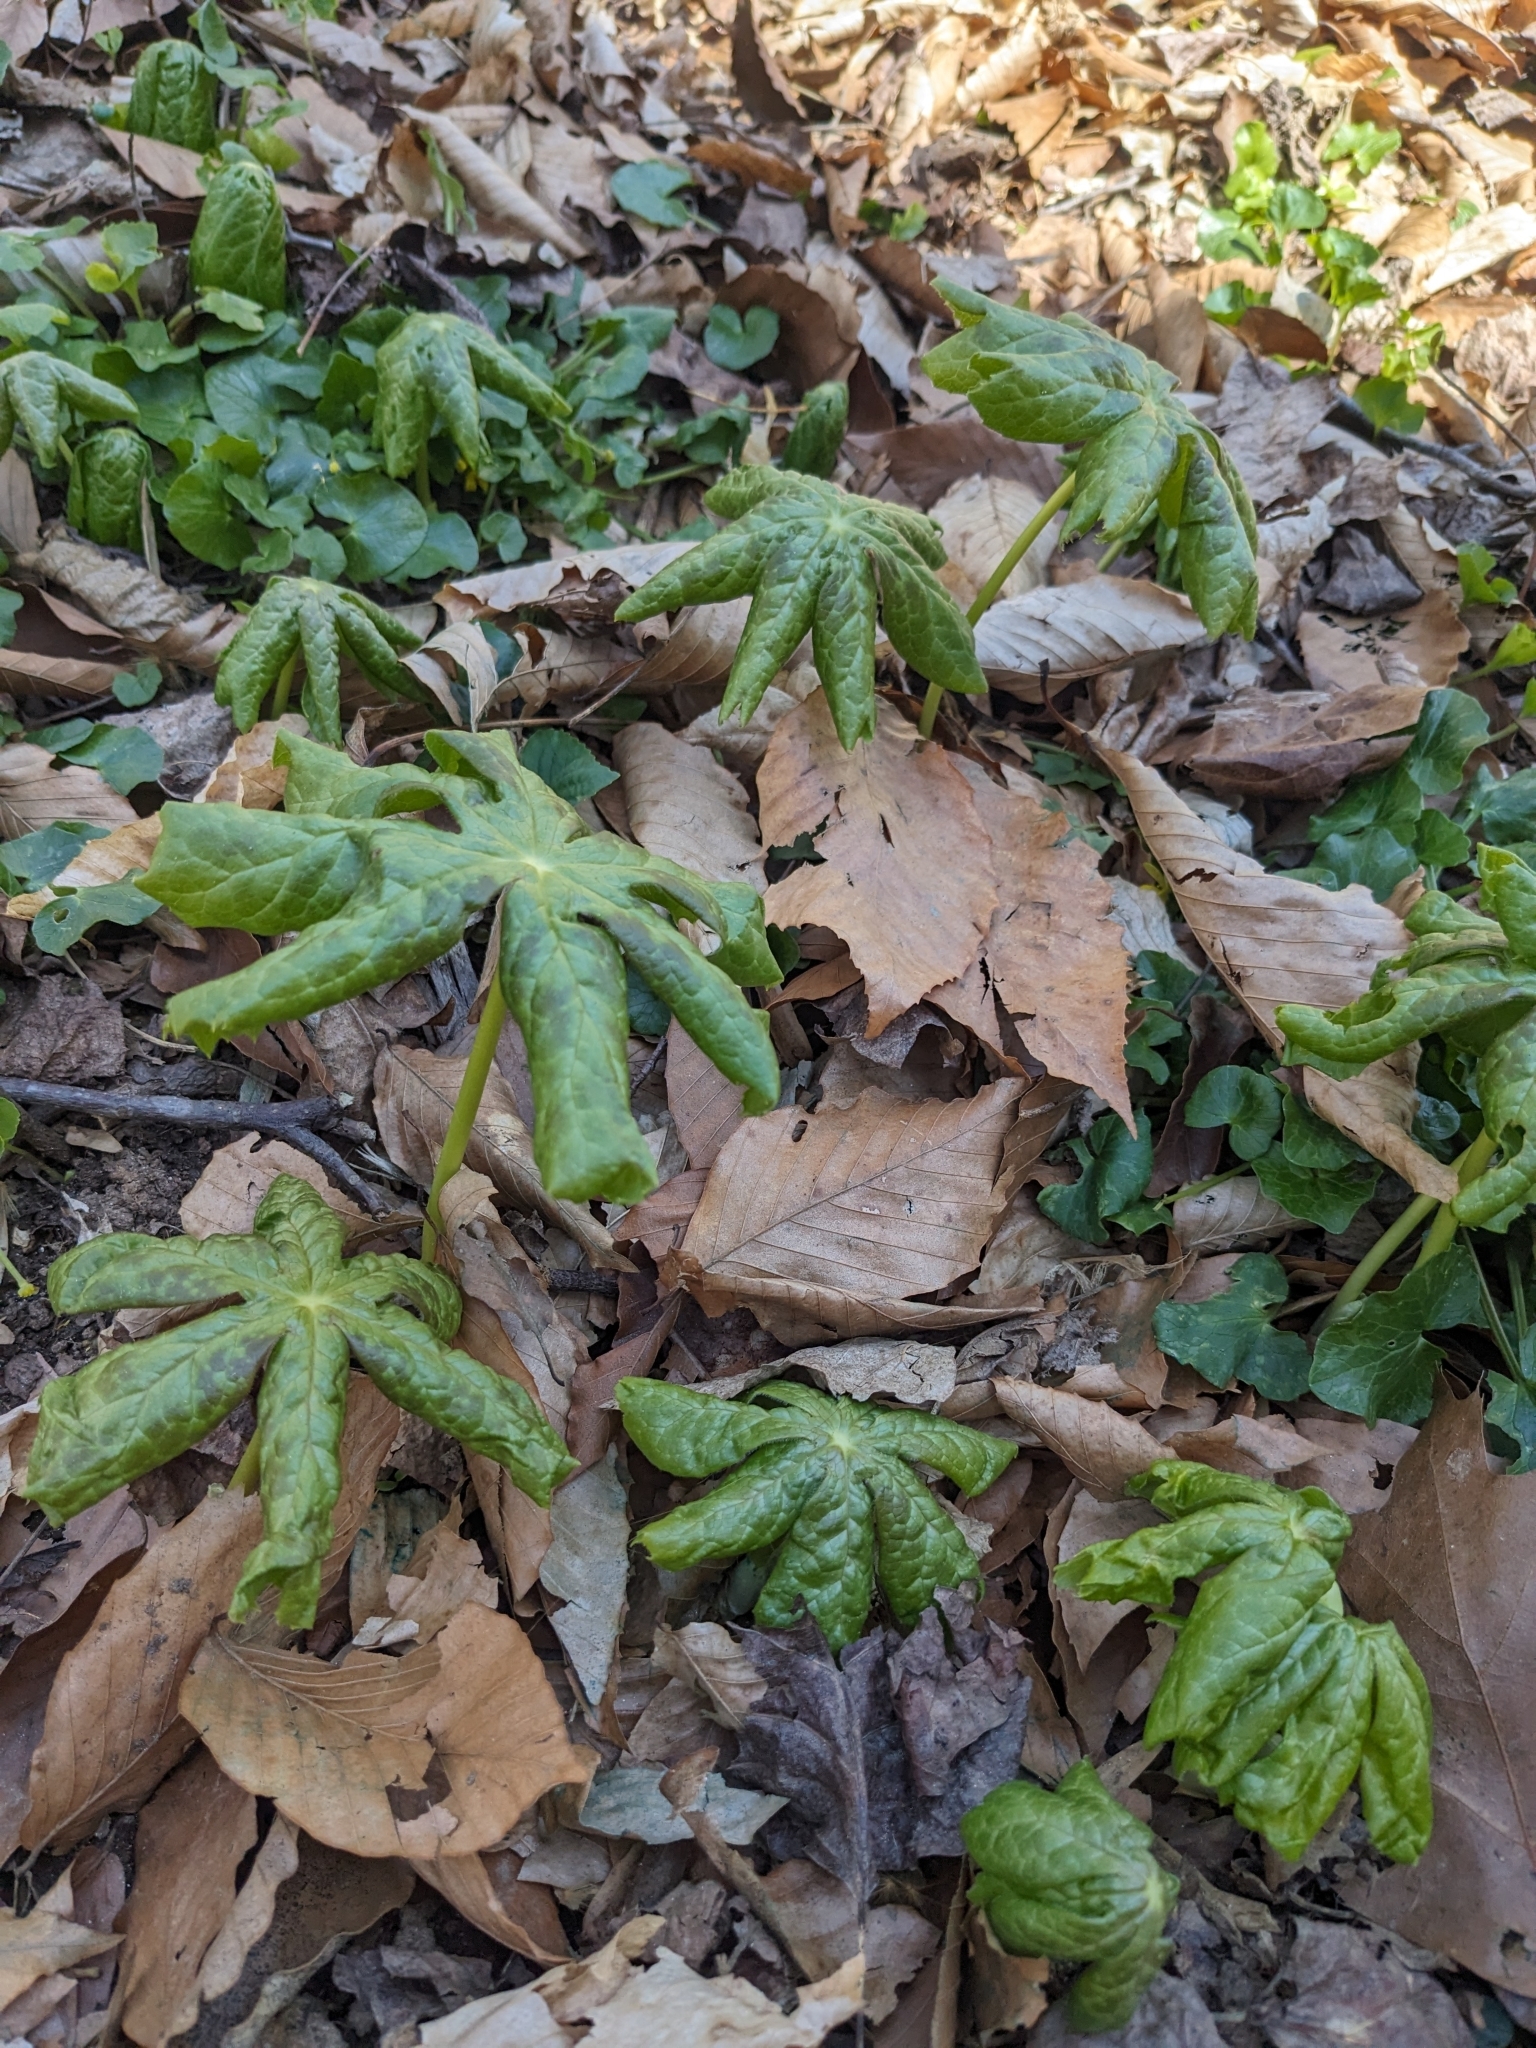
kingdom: Plantae
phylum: Tracheophyta
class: Magnoliopsida
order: Ranunculales
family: Berberidaceae
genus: Podophyllum
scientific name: Podophyllum peltatum
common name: Wild mandrake
